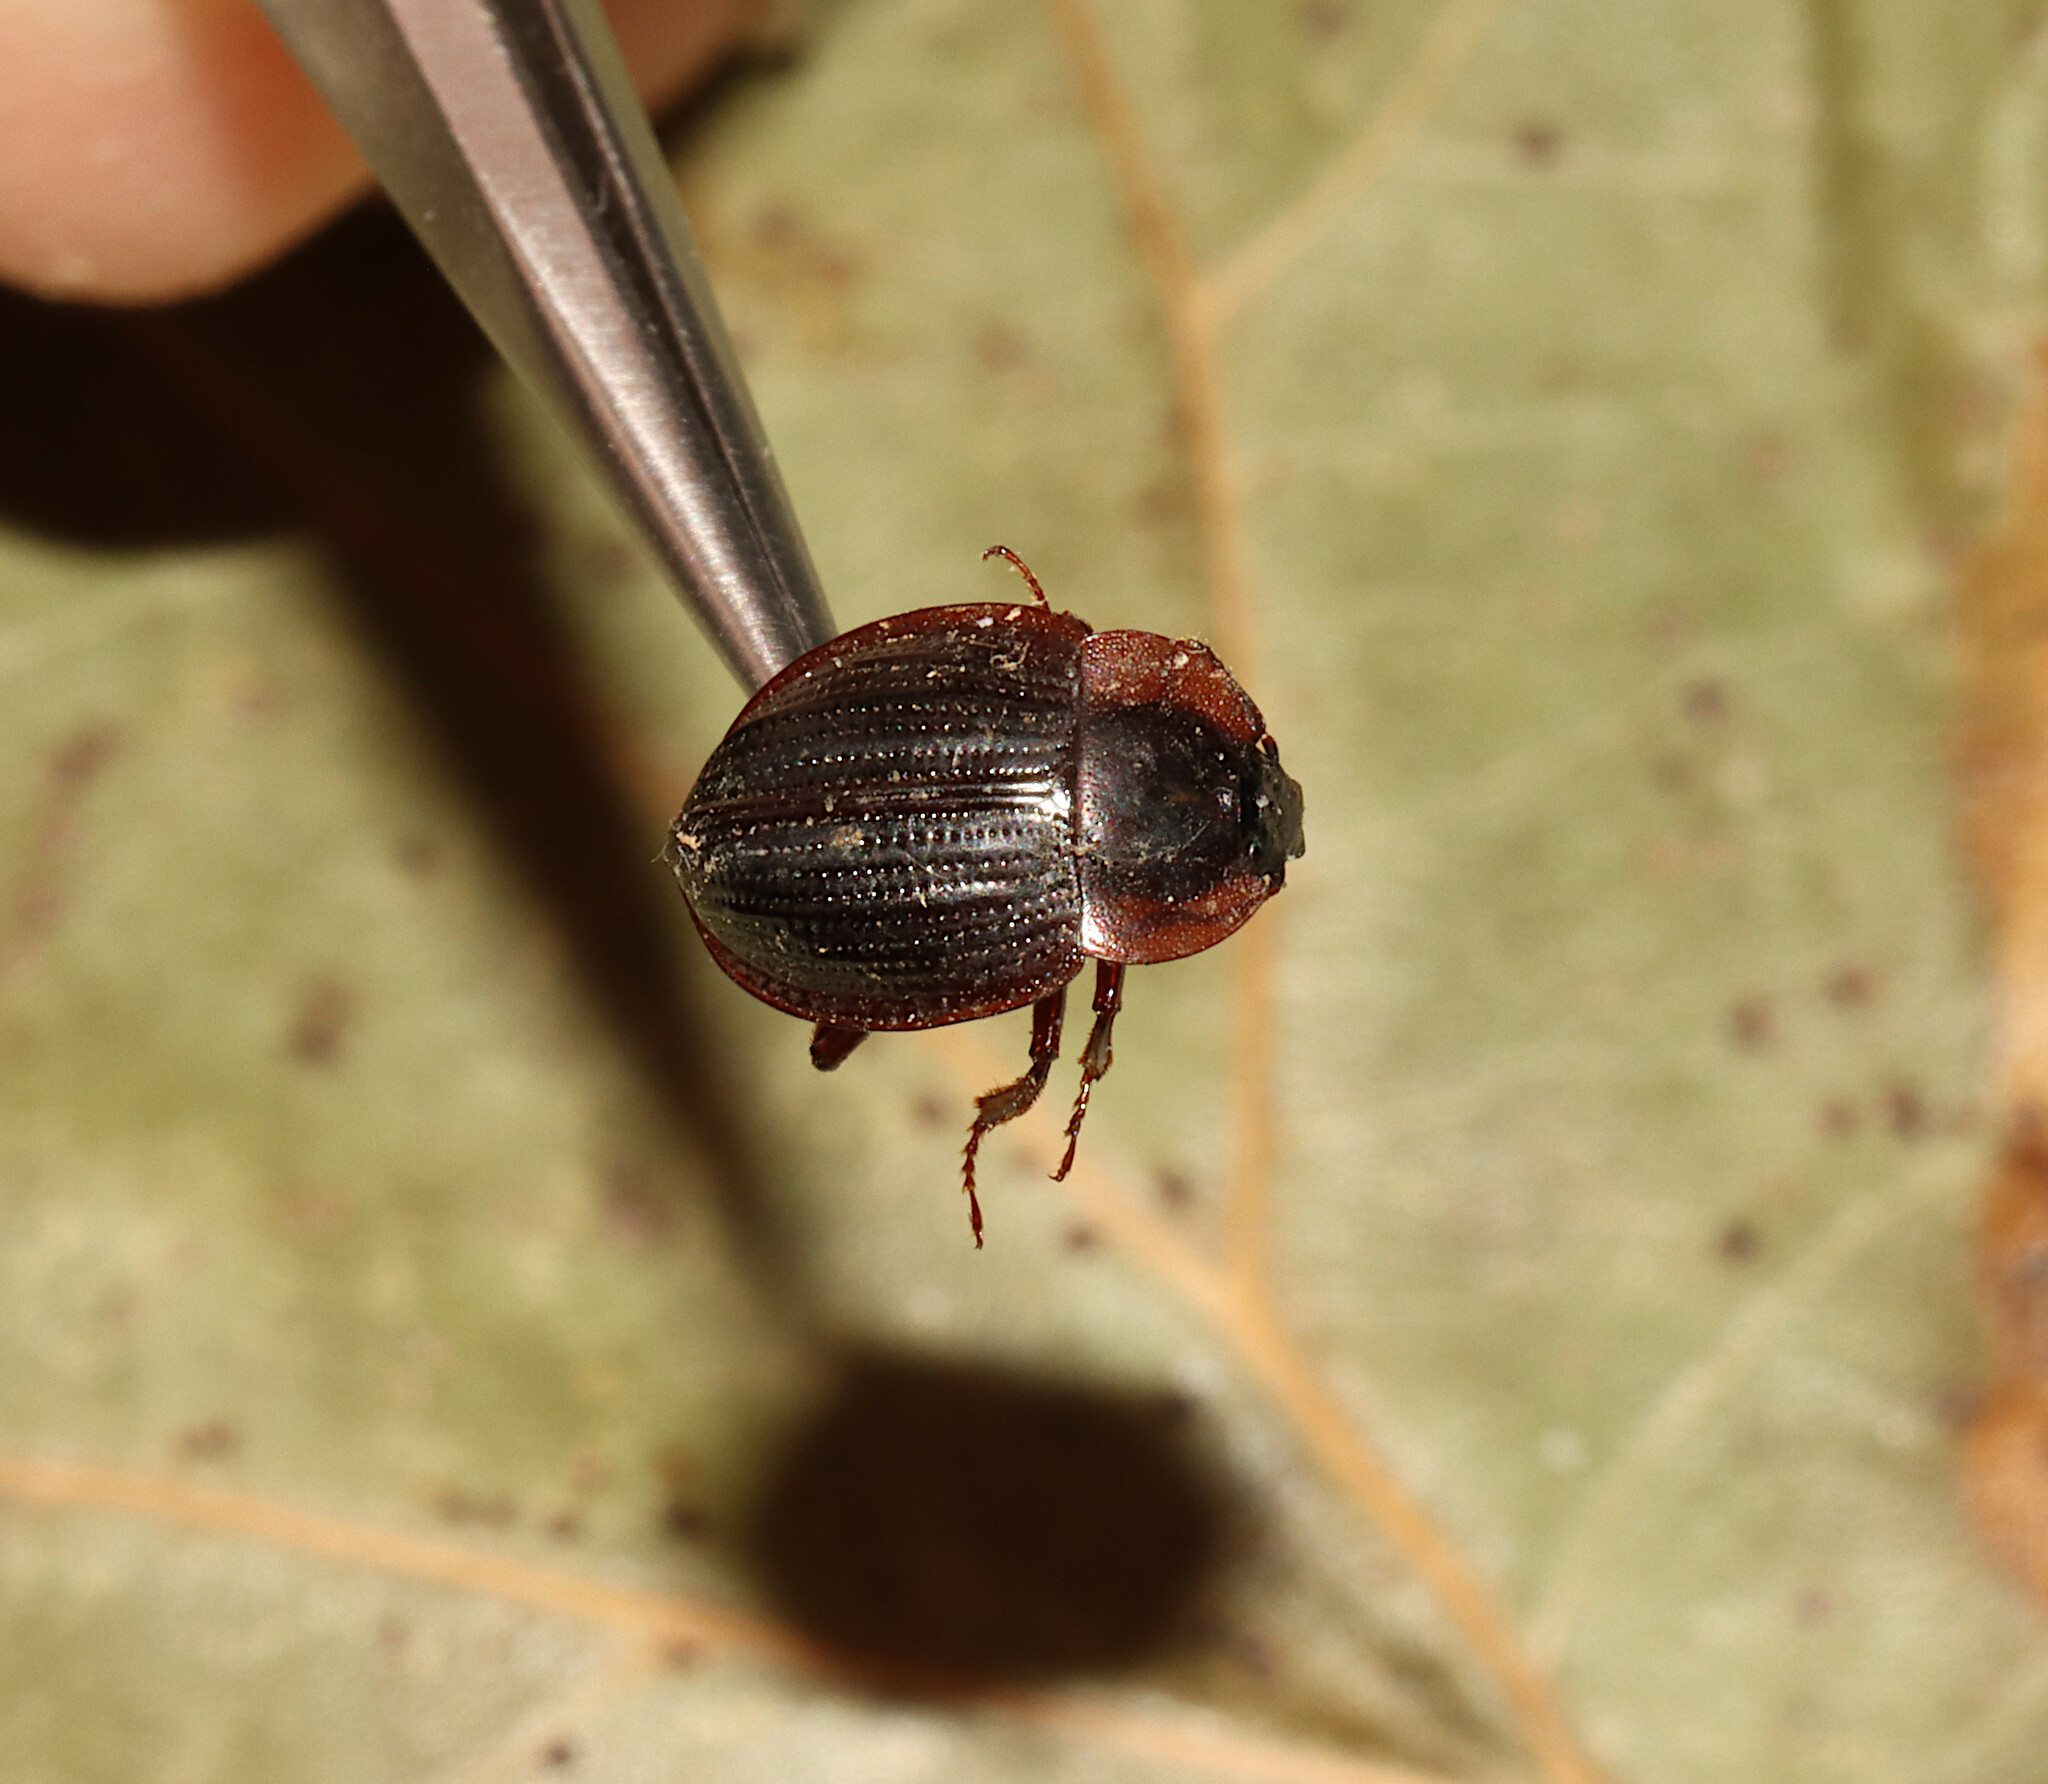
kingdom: Animalia
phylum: Arthropoda
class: Insecta
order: Coleoptera
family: Agyrtidae
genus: Necrophilus
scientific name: Necrophilus pettitii
